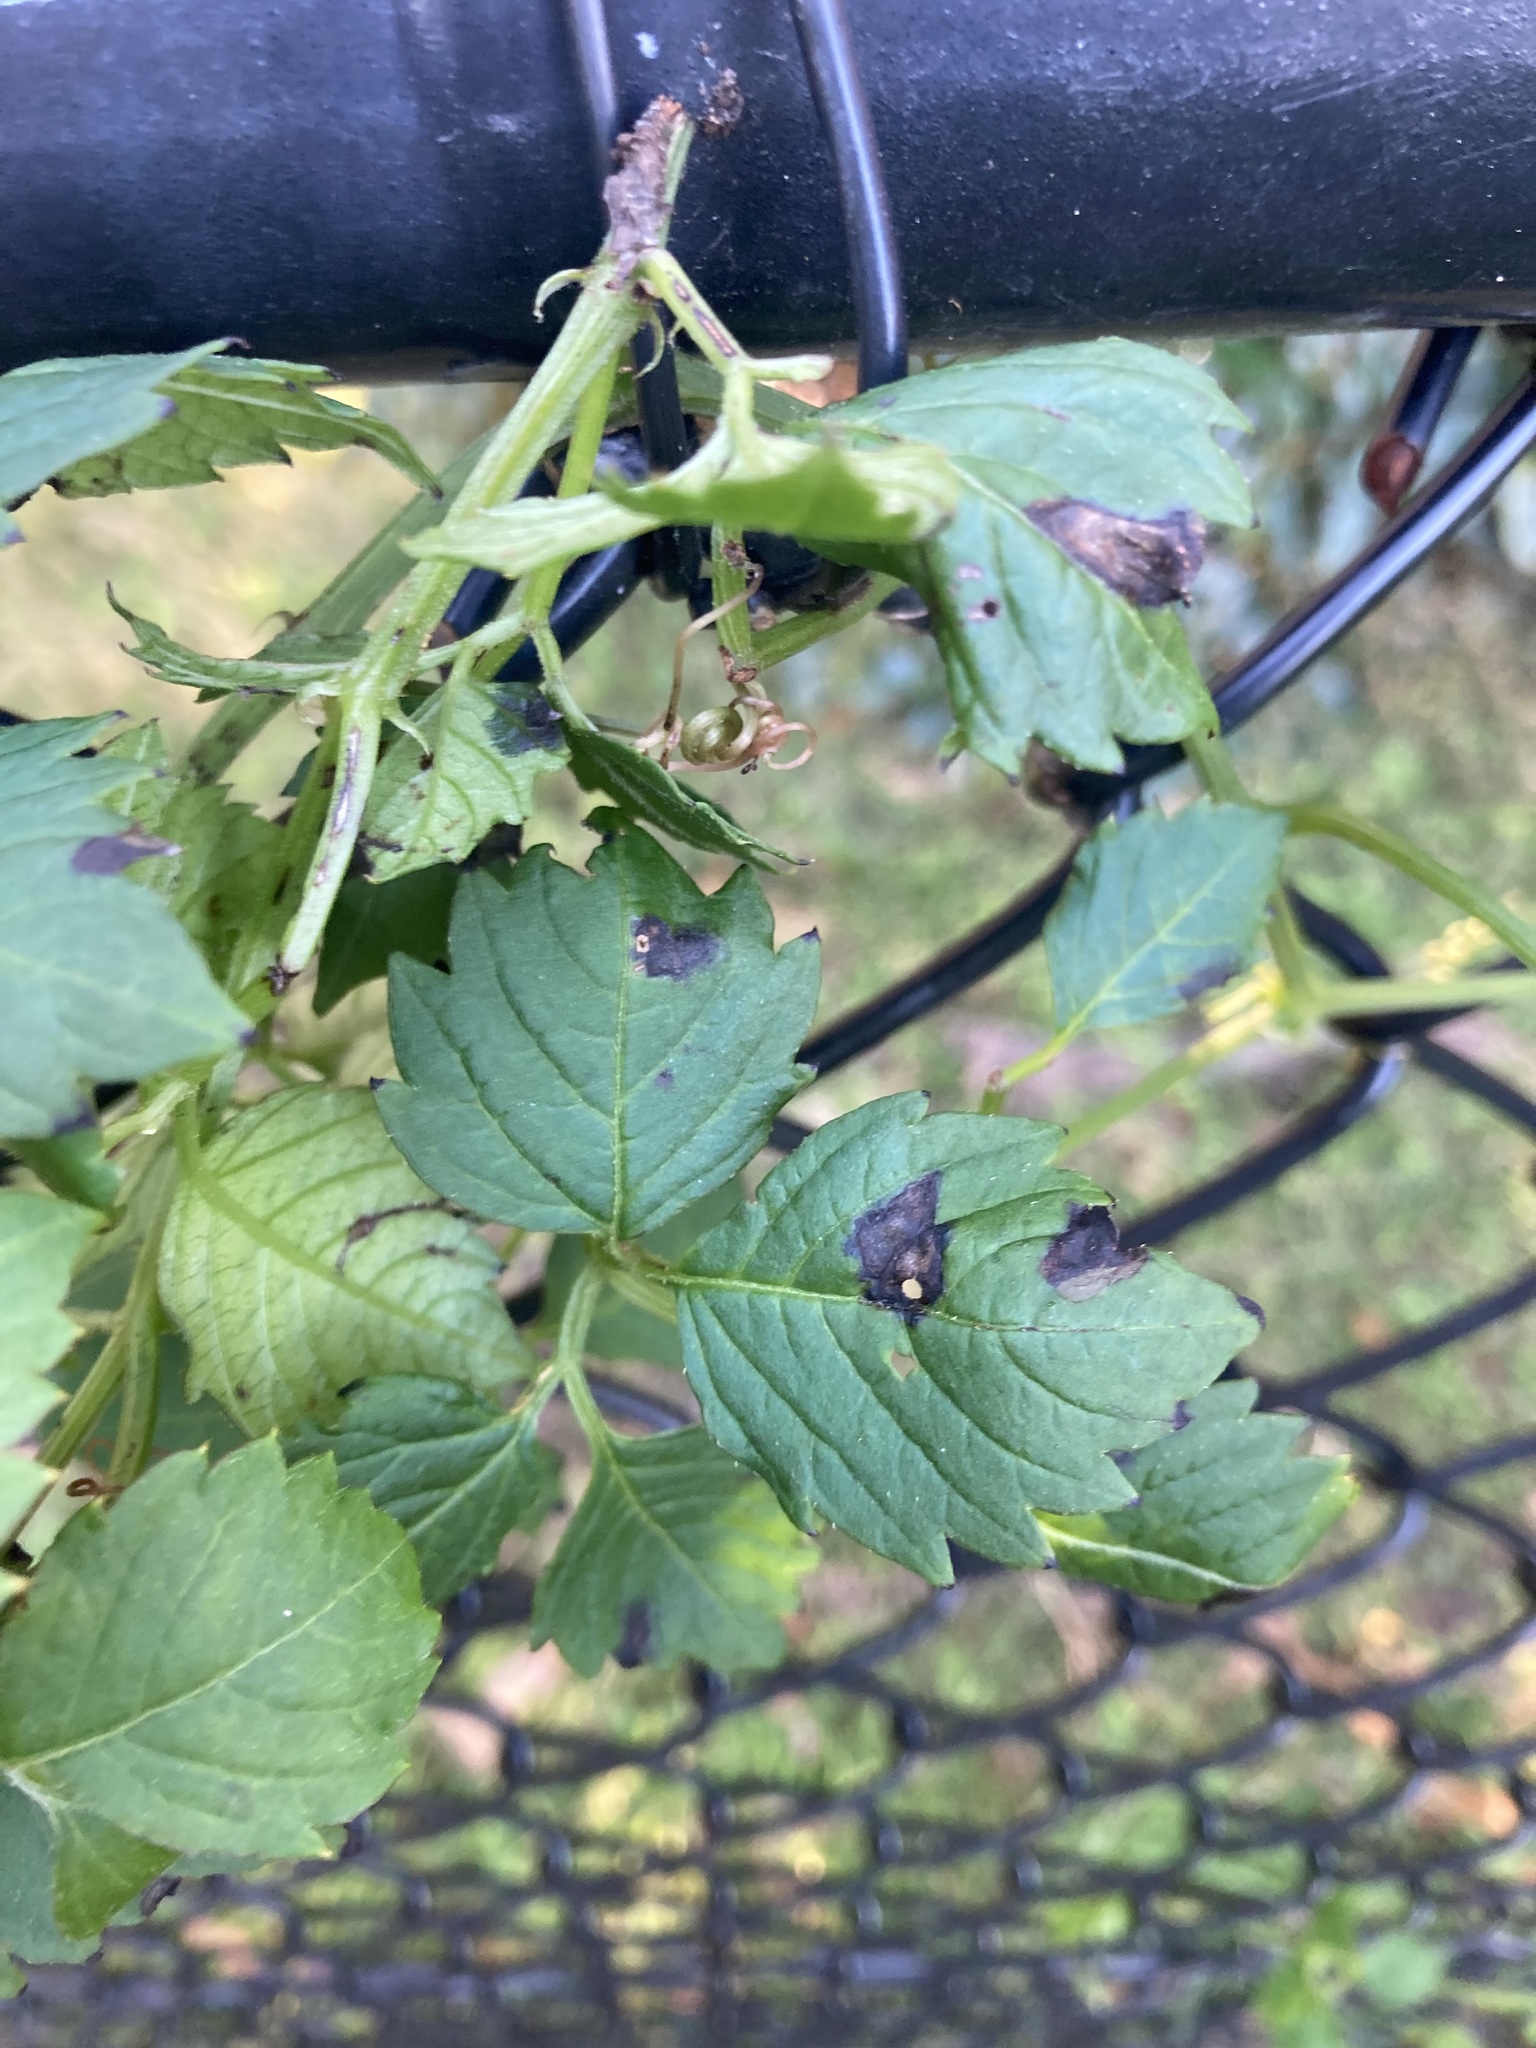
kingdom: Plantae
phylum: Tracheophyta
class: Magnoliopsida
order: Vitales
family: Vitaceae
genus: Causonis
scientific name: Causonis clematidea
